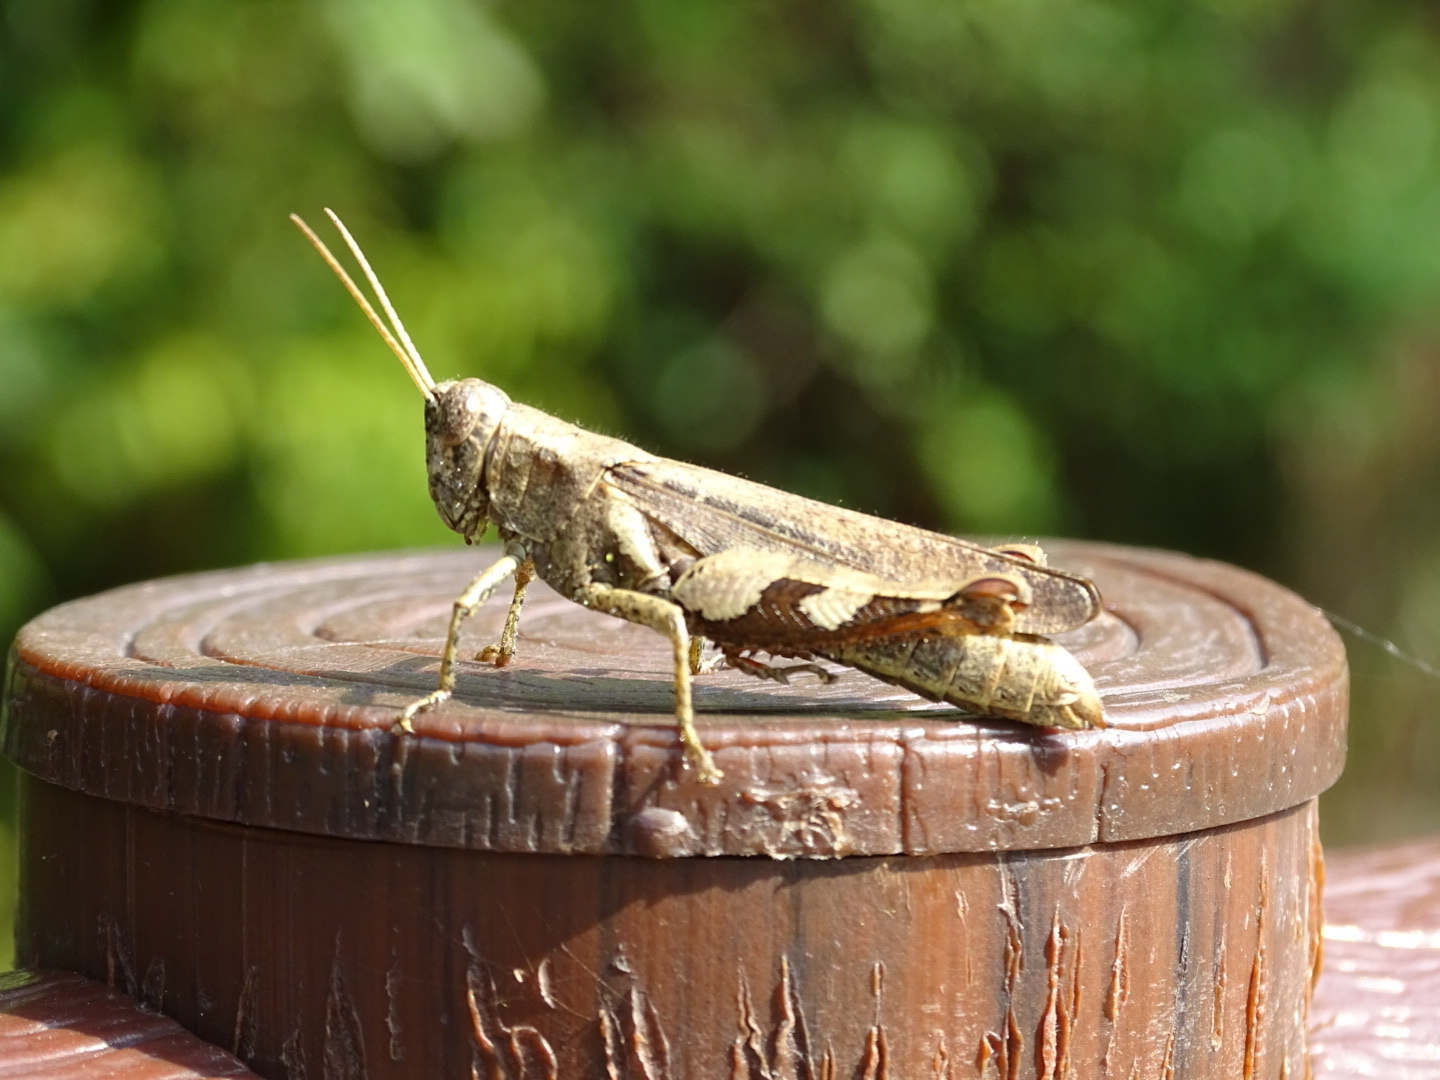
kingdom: Animalia
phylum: Arthropoda
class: Insecta
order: Orthoptera
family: Acrididae
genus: Xenocatantops
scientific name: Xenocatantops humile
